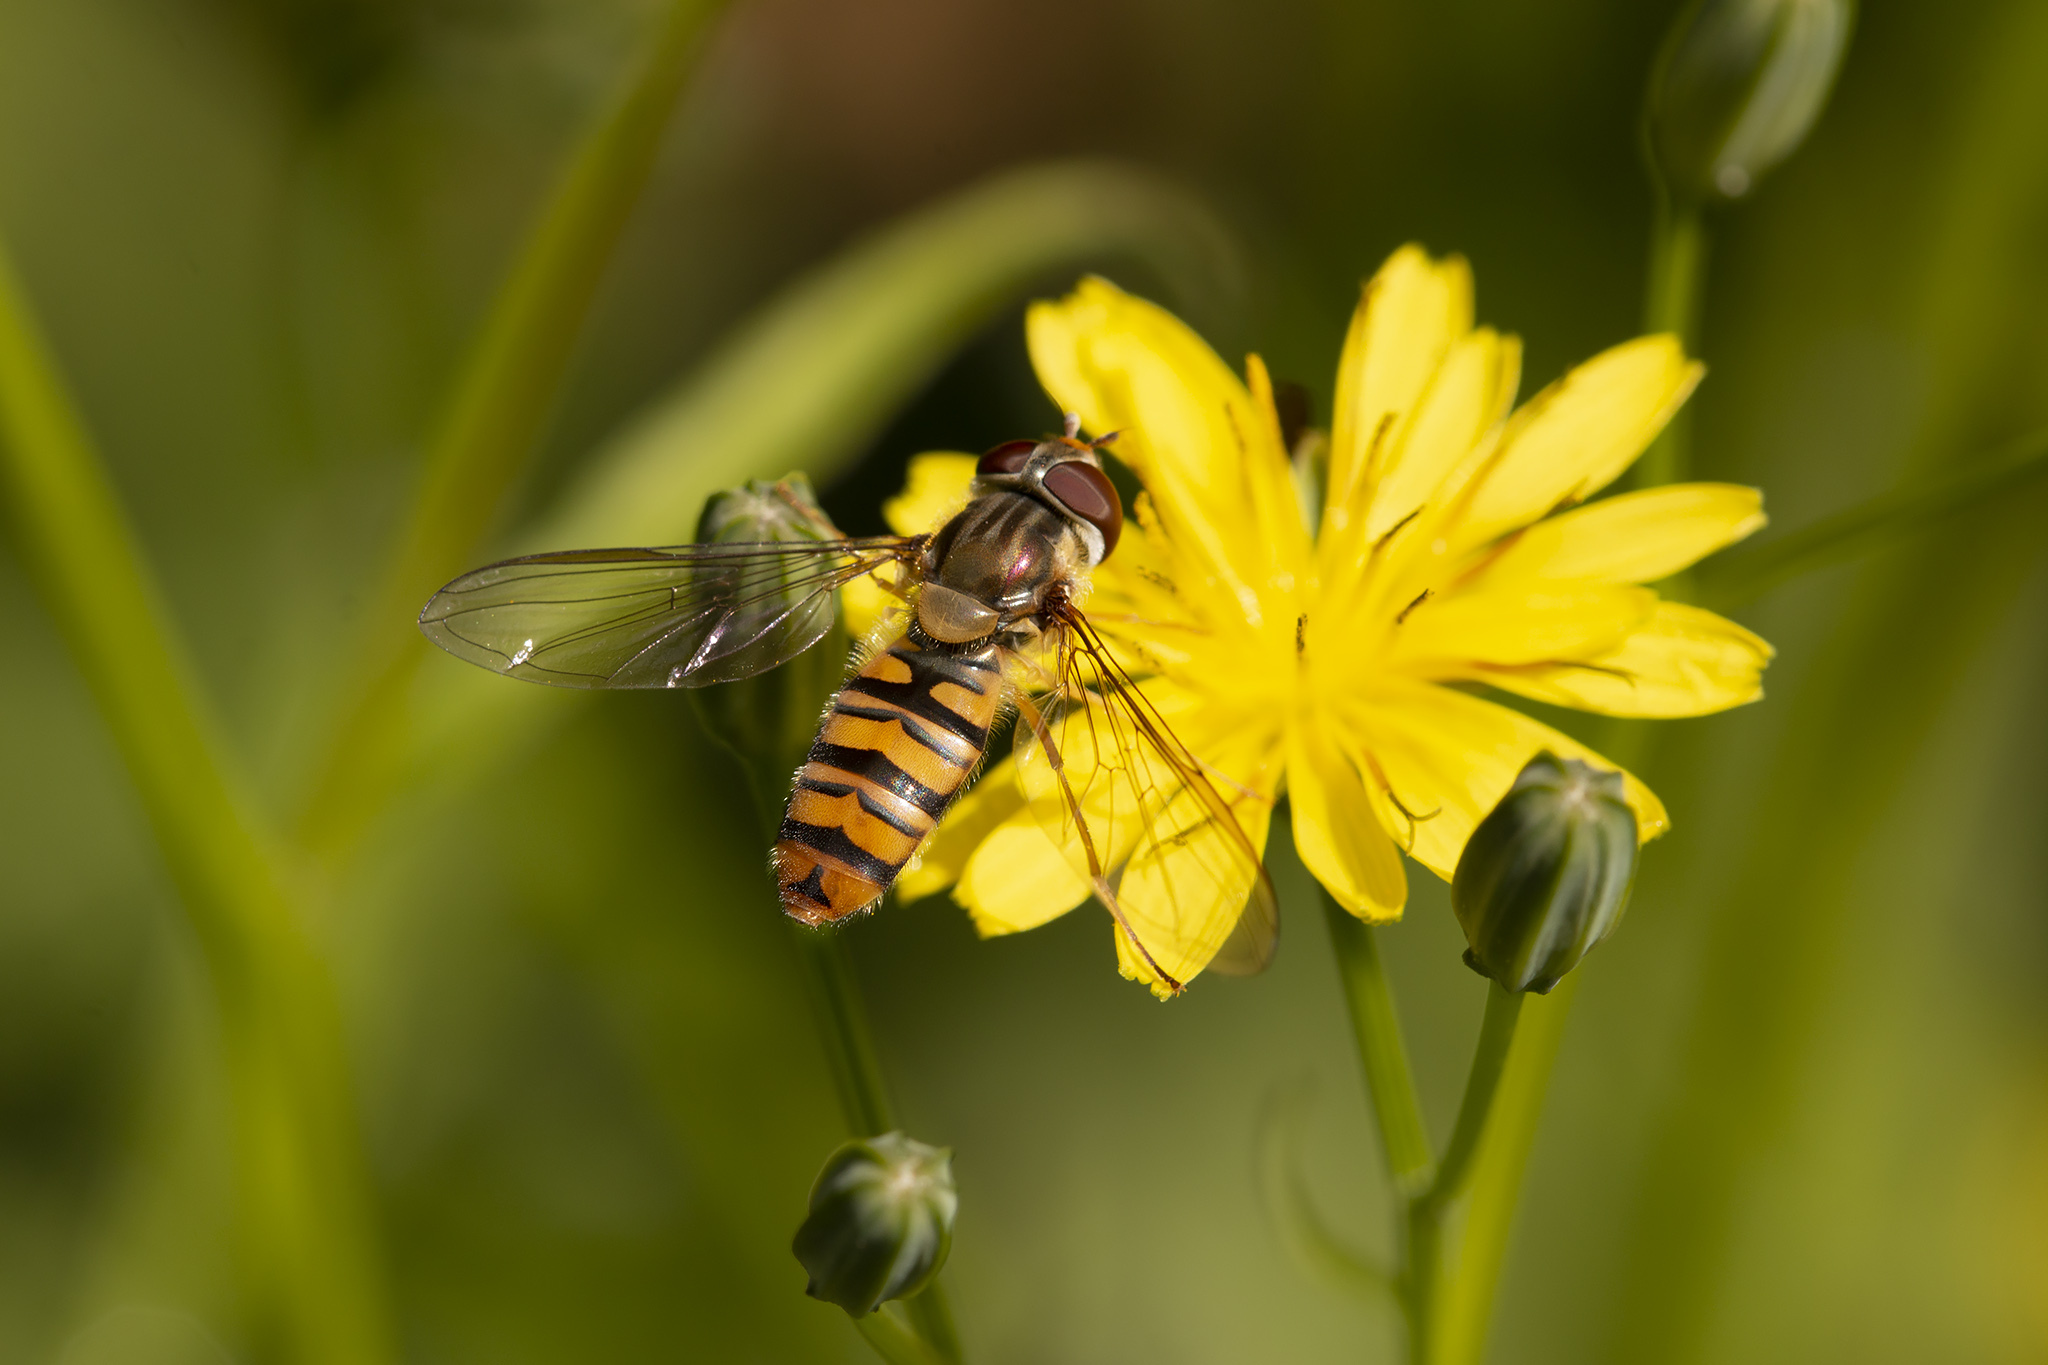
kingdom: Animalia
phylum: Arthropoda
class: Insecta
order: Diptera
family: Syrphidae
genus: Episyrphus
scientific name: Episyrphus balteatus
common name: Marmalade hoverfly
